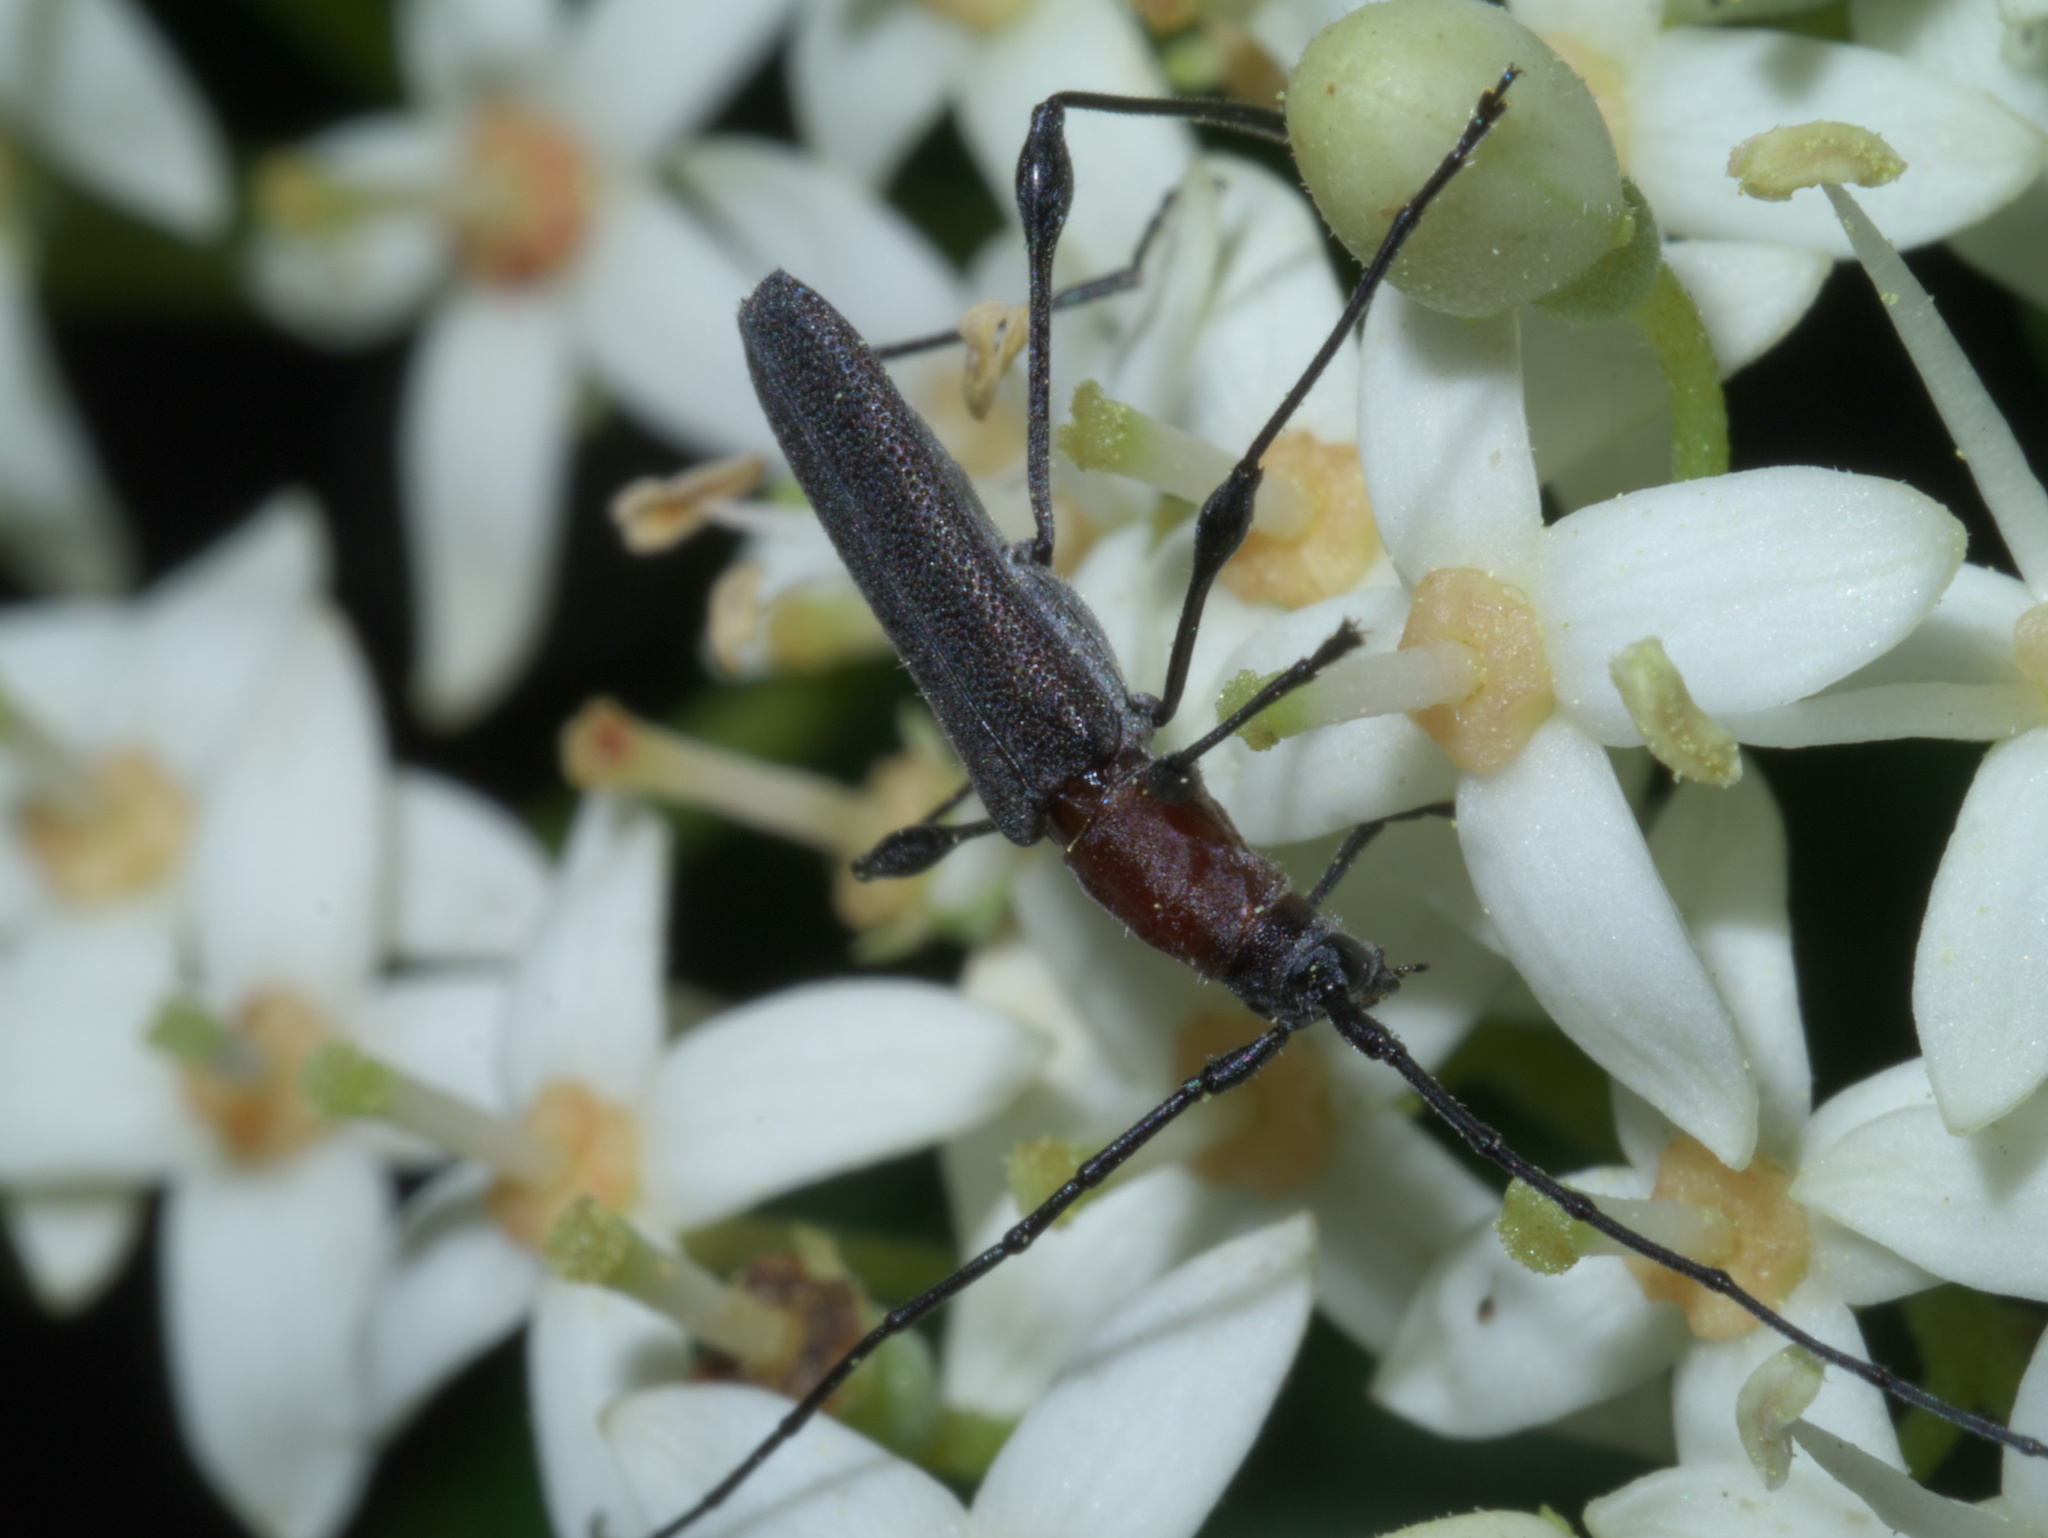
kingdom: Animalia
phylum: Arthropoda
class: Insecta
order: Coleoptera
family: Cerambycidae
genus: Rhopalophora
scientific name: Rhopalophora longipes
